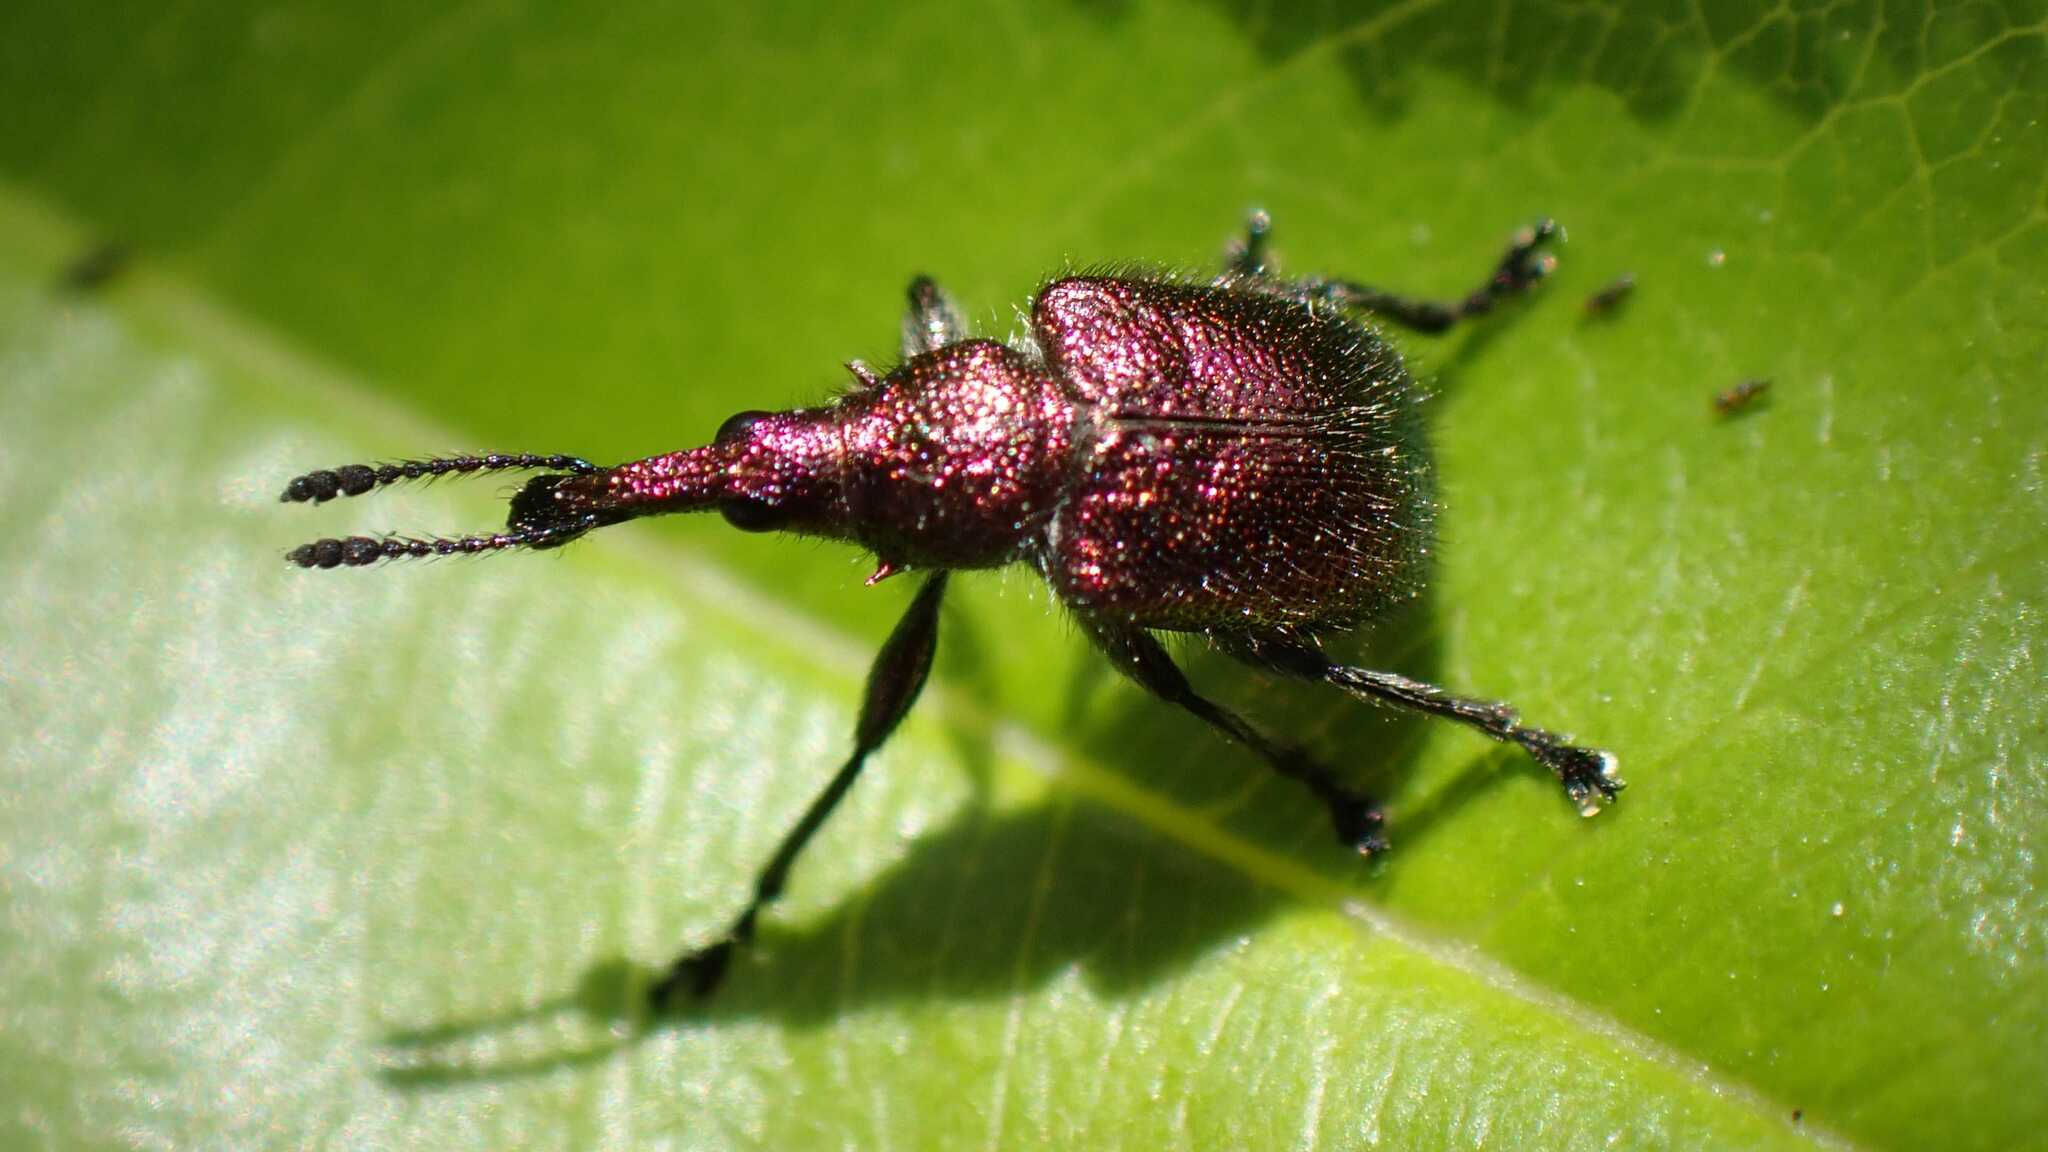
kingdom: Animalia
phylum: Arthropoda
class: Insecta
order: Coleoptera
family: Attelabidae
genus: Rhynchites
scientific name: Rhynchites auratus
